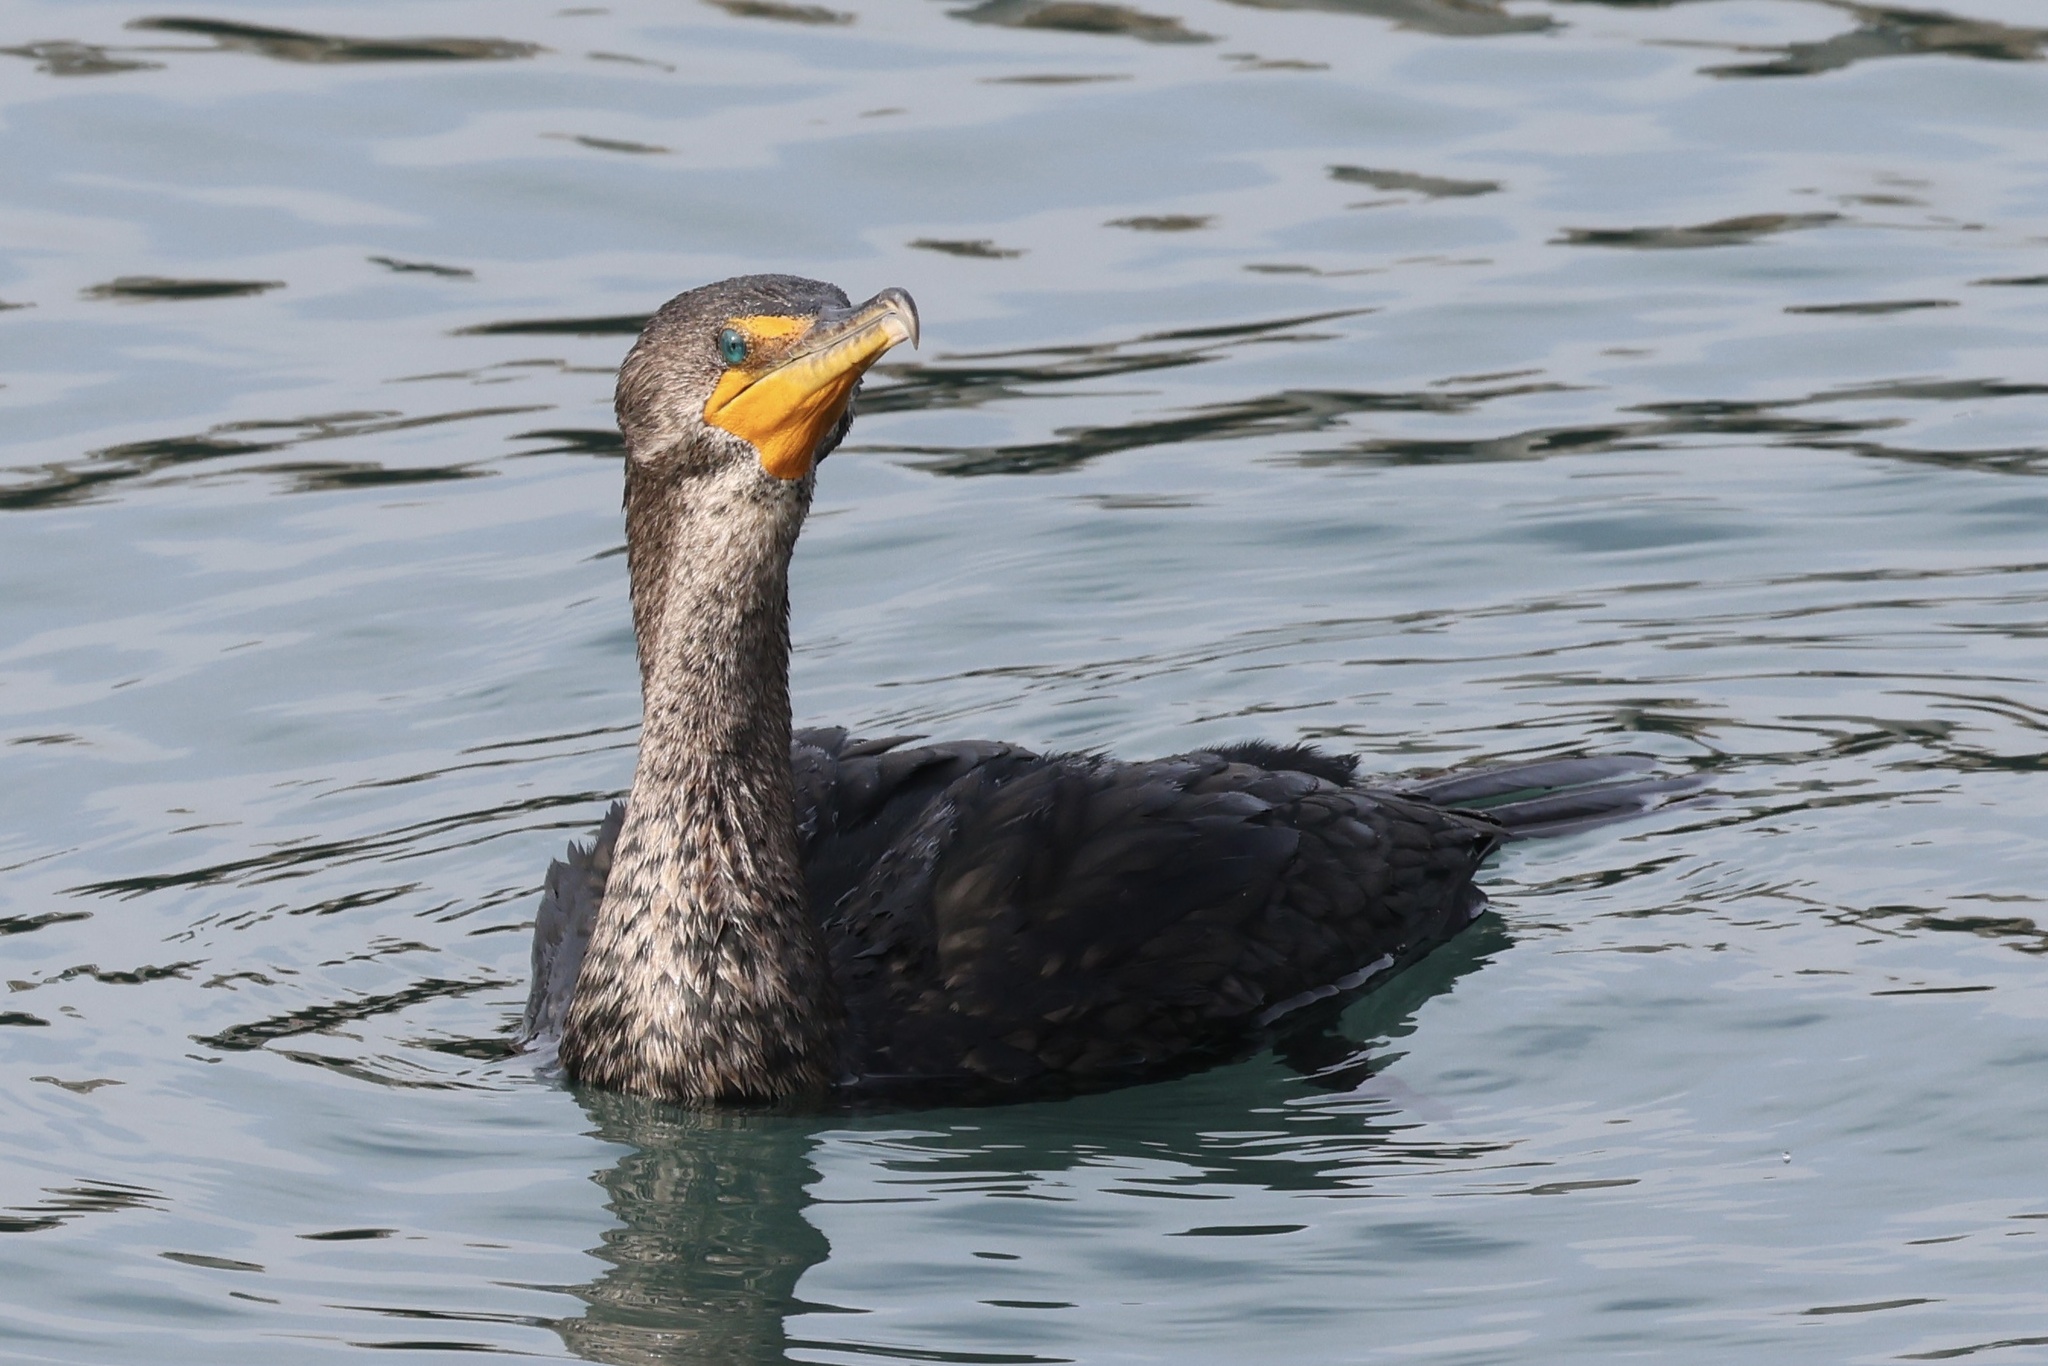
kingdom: Animalia
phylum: Chordata
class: Aves
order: Suliformes
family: Phalacrocoracidae
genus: Phalacrocorax
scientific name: Phalacrocorax auritus
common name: Double-crested cormorant
